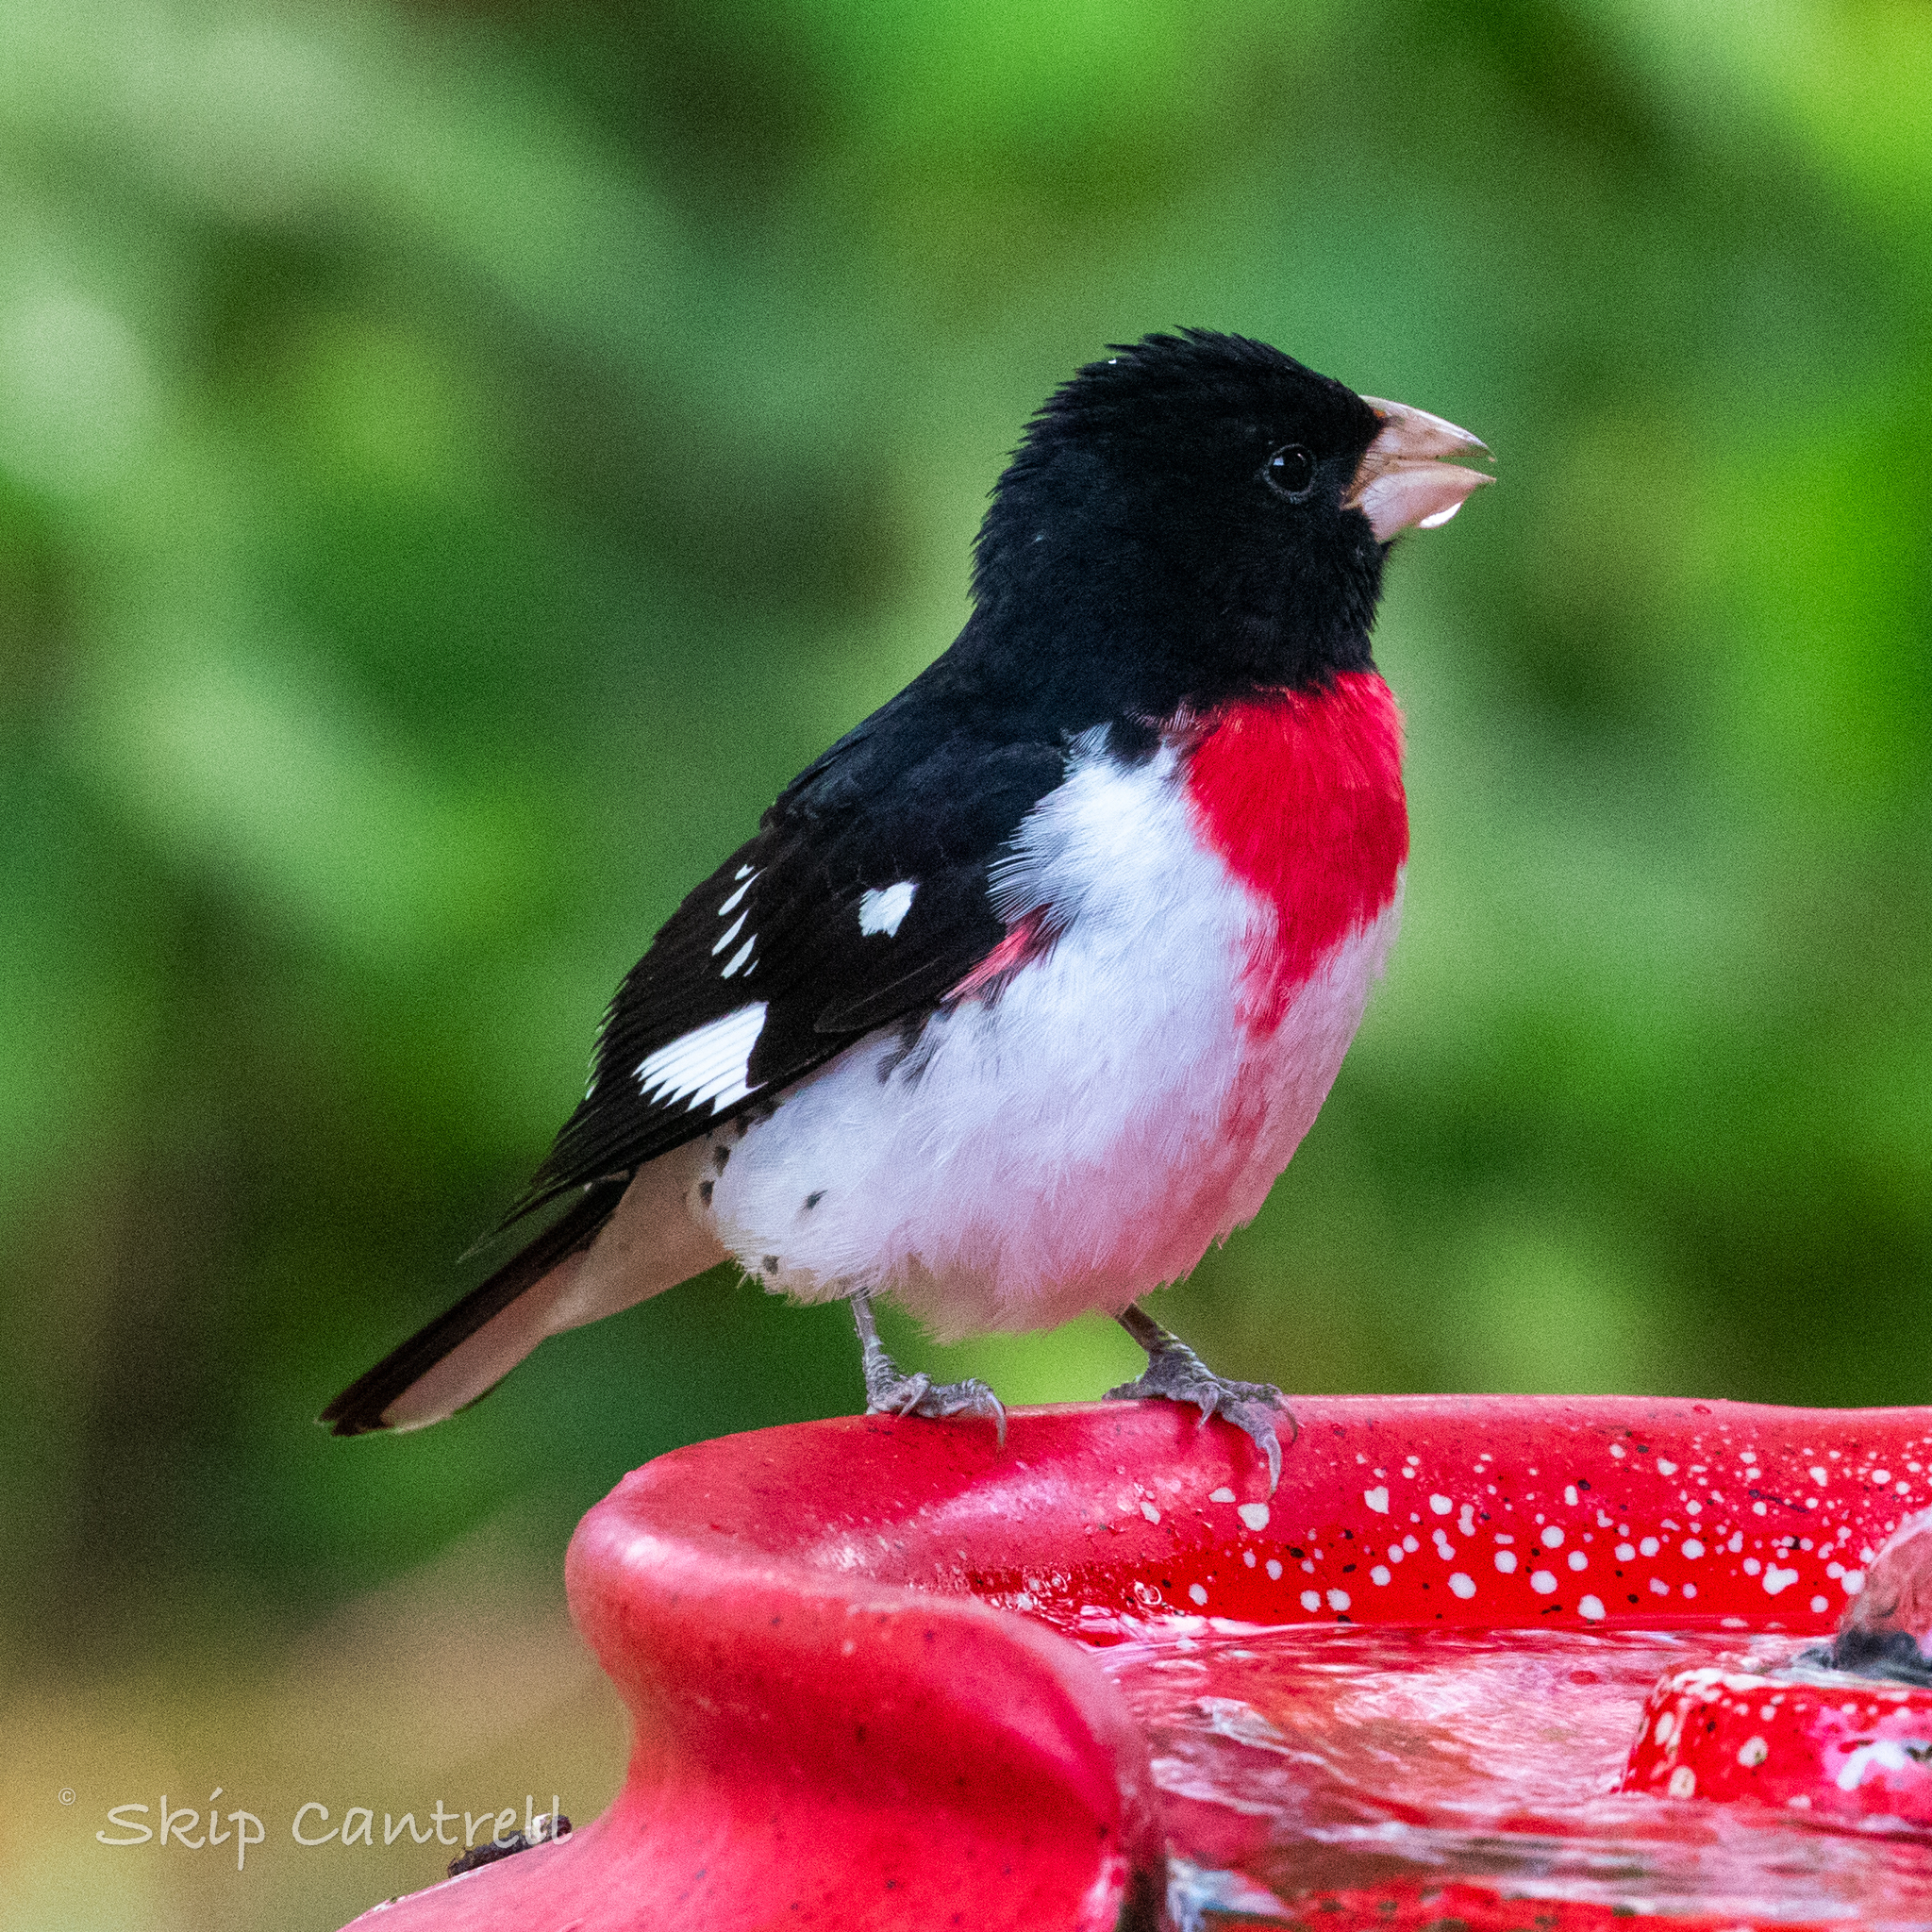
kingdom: Animalia
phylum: Chordata
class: Aves
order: Passeriformes
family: Cardinalidae
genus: Pheucticus
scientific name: Pheucticus ludovicianus
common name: Rose-breasted grosbeak
